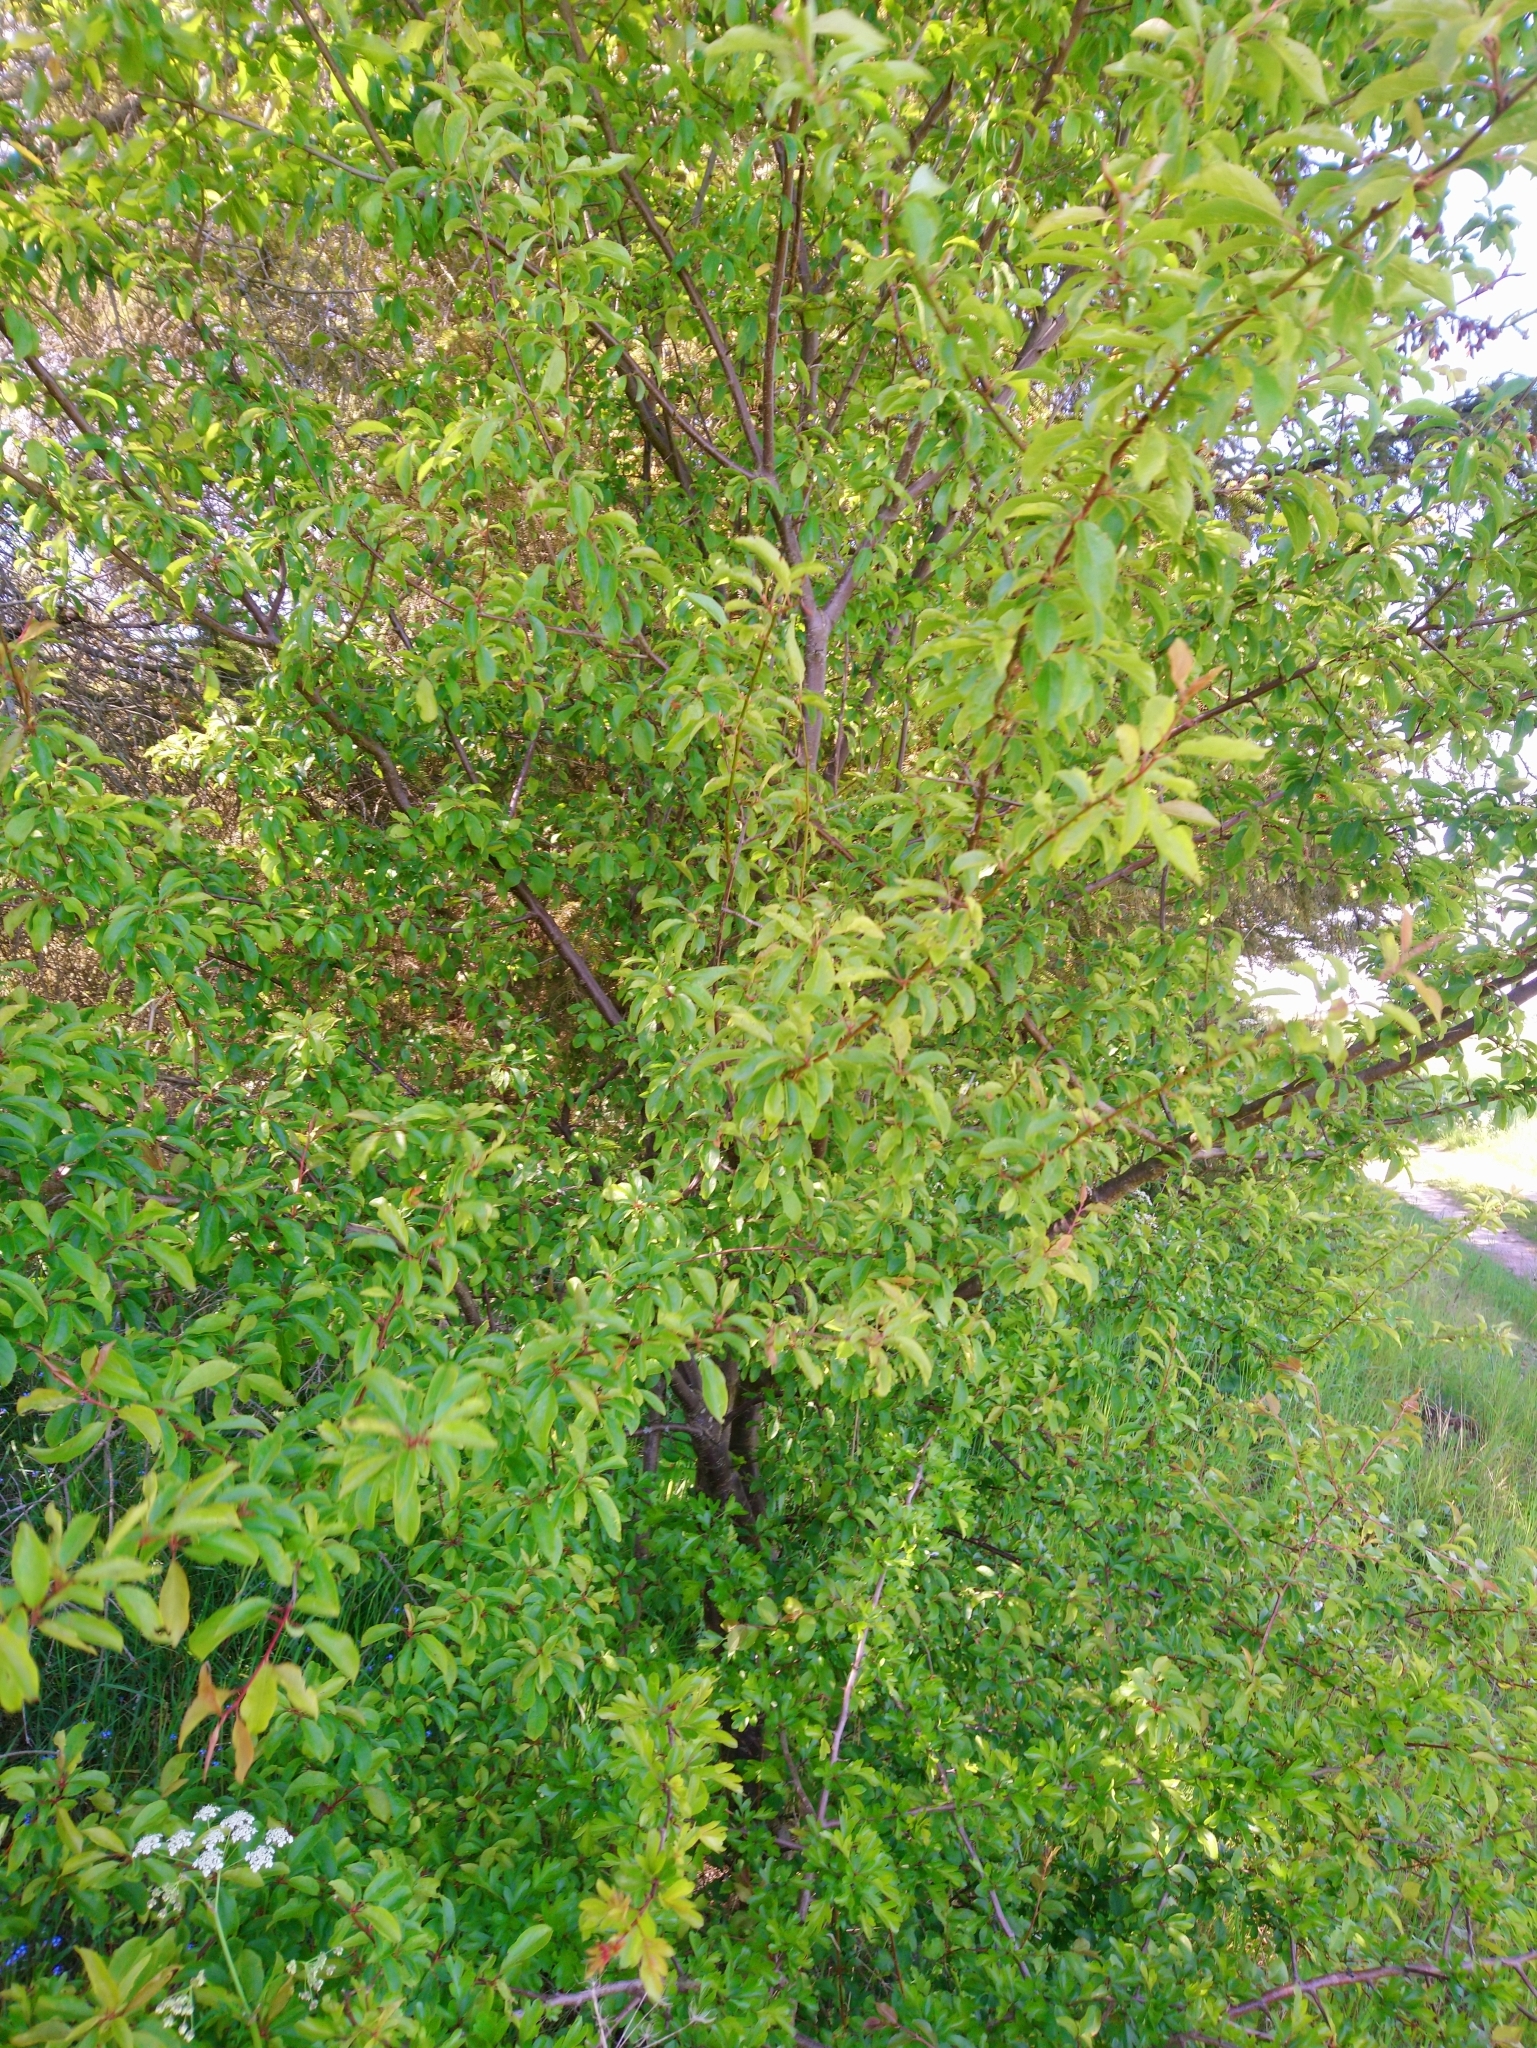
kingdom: Plantae
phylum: Tracheophyta
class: Magnoliopsida
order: Rosales
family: Rosaceae
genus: Prunus
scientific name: Prunus cerasifera
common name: Cherry plum
